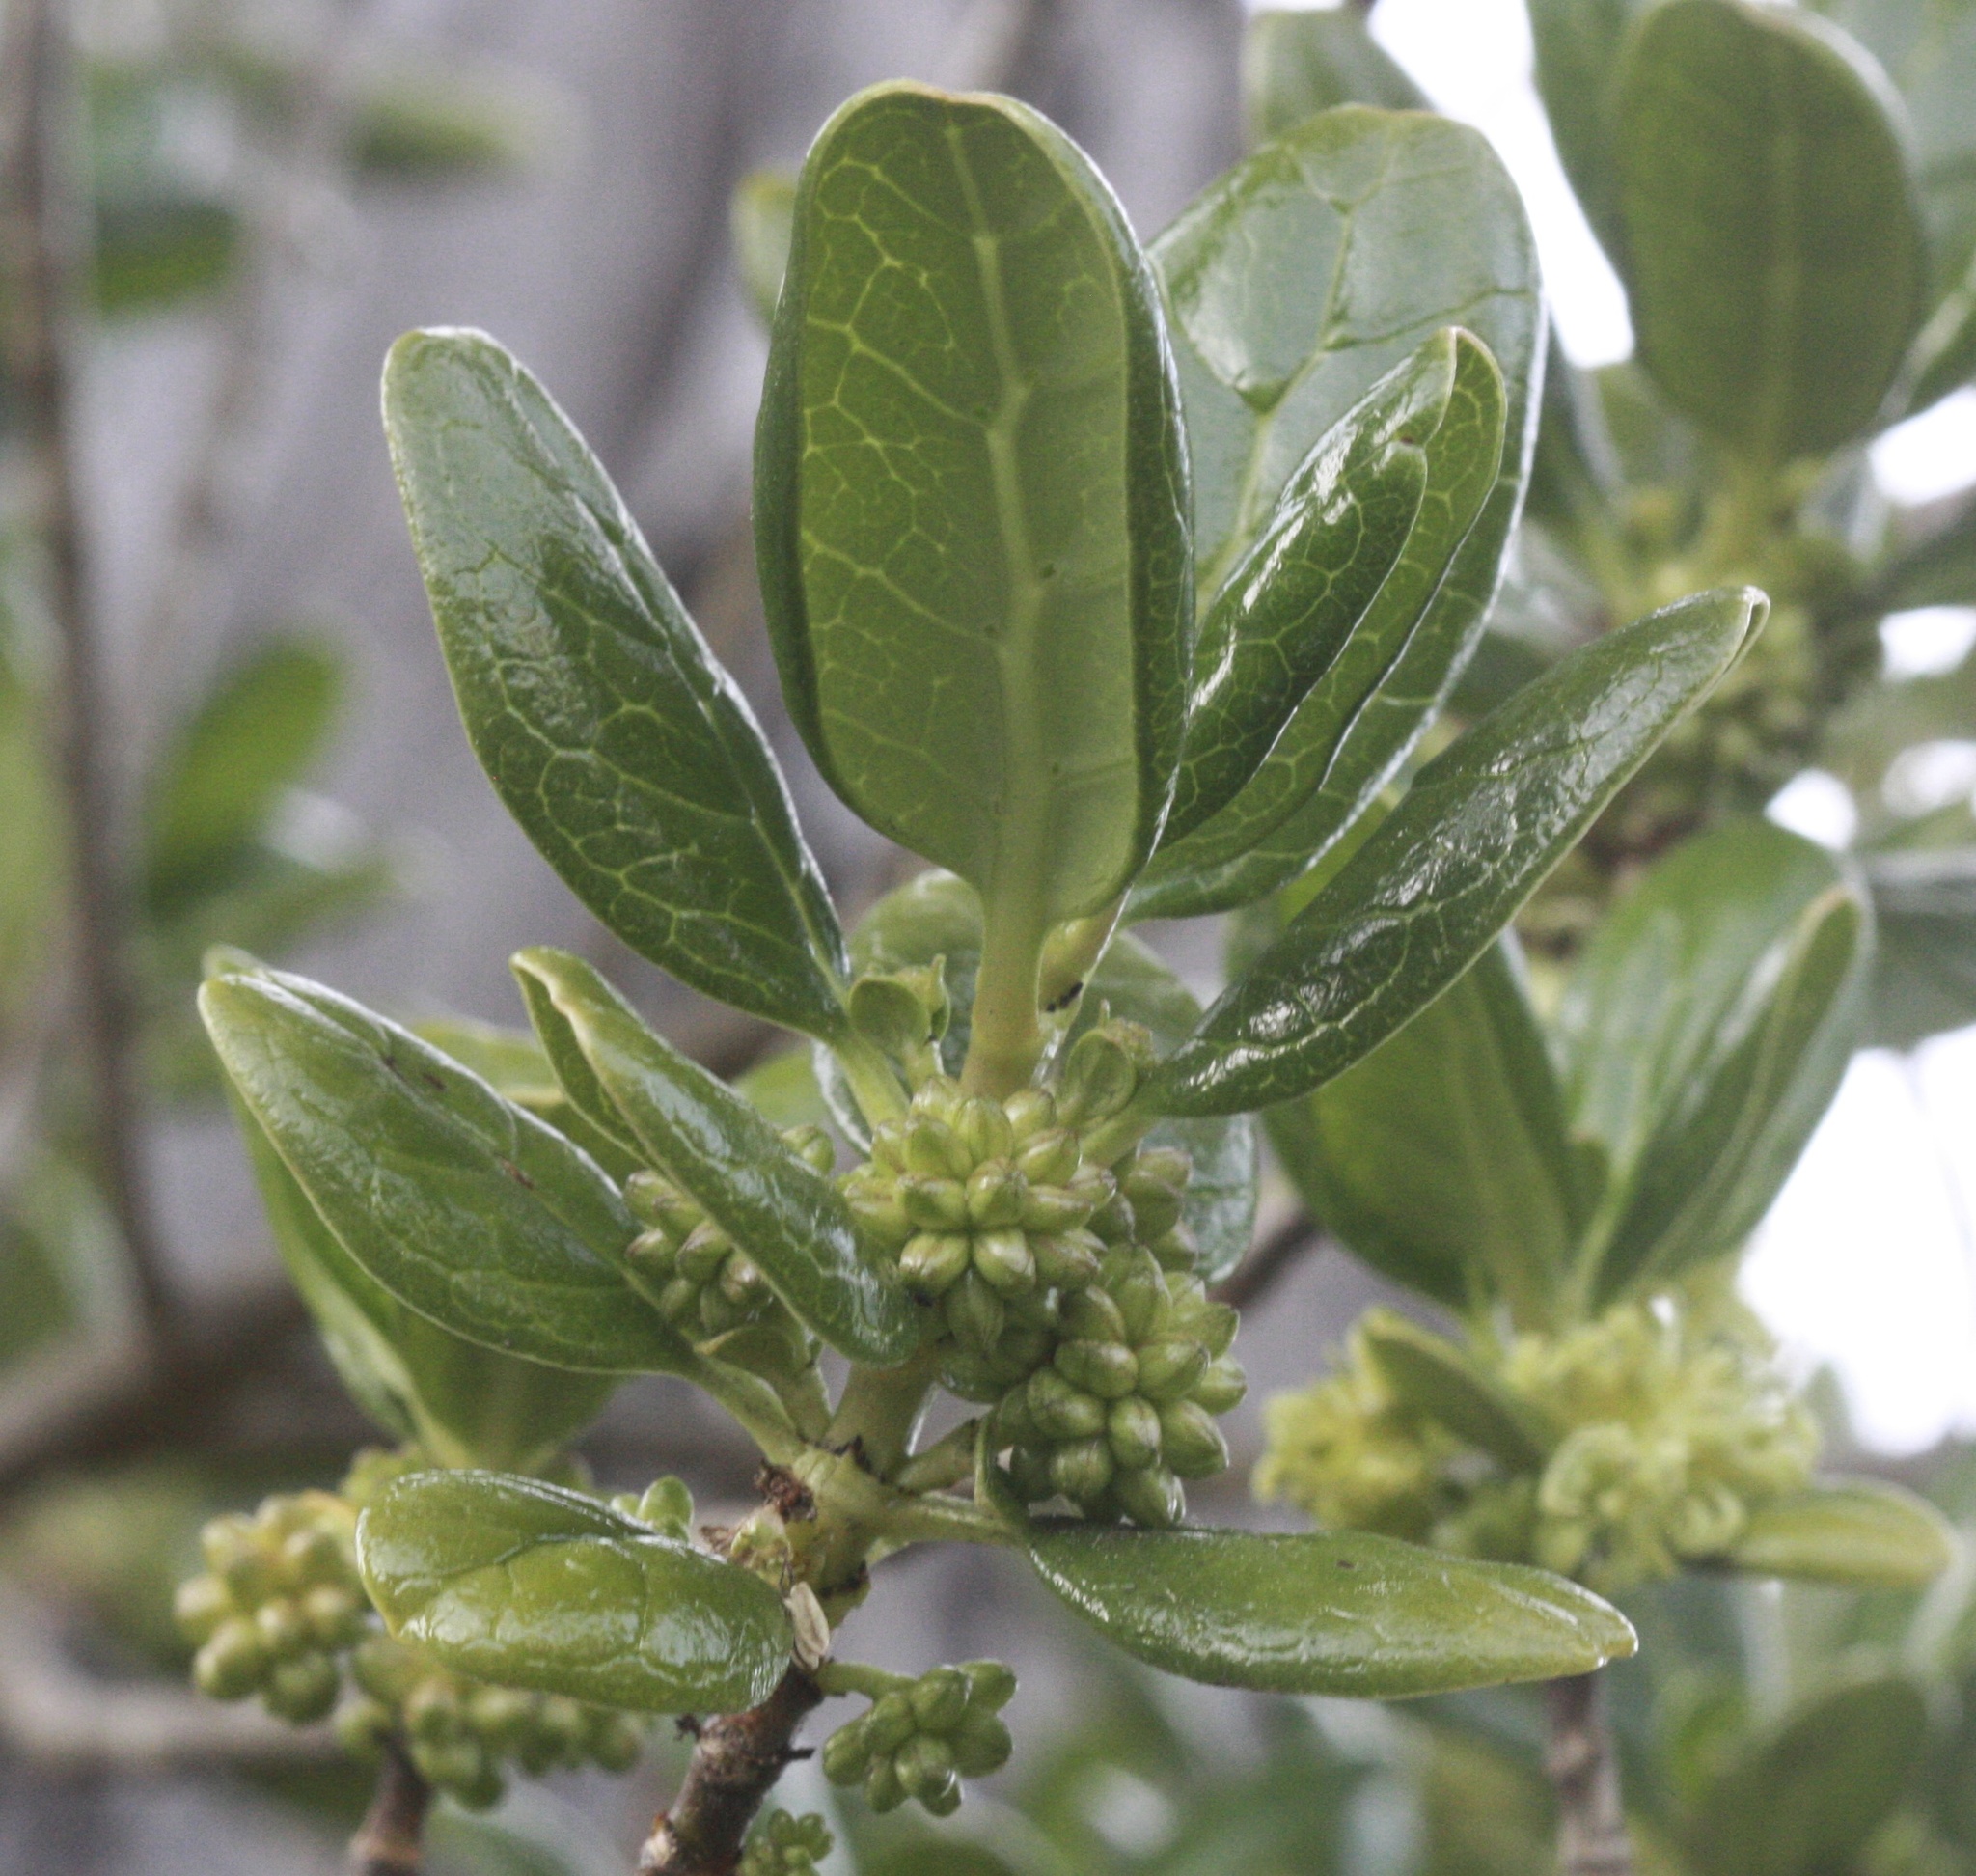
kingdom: Plantae
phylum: Tracheophyta
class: Magnoliopsida
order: Gentianales
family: Rubiaceae
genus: Coprosma
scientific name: Coprosma repens
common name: Tree bedstraw
